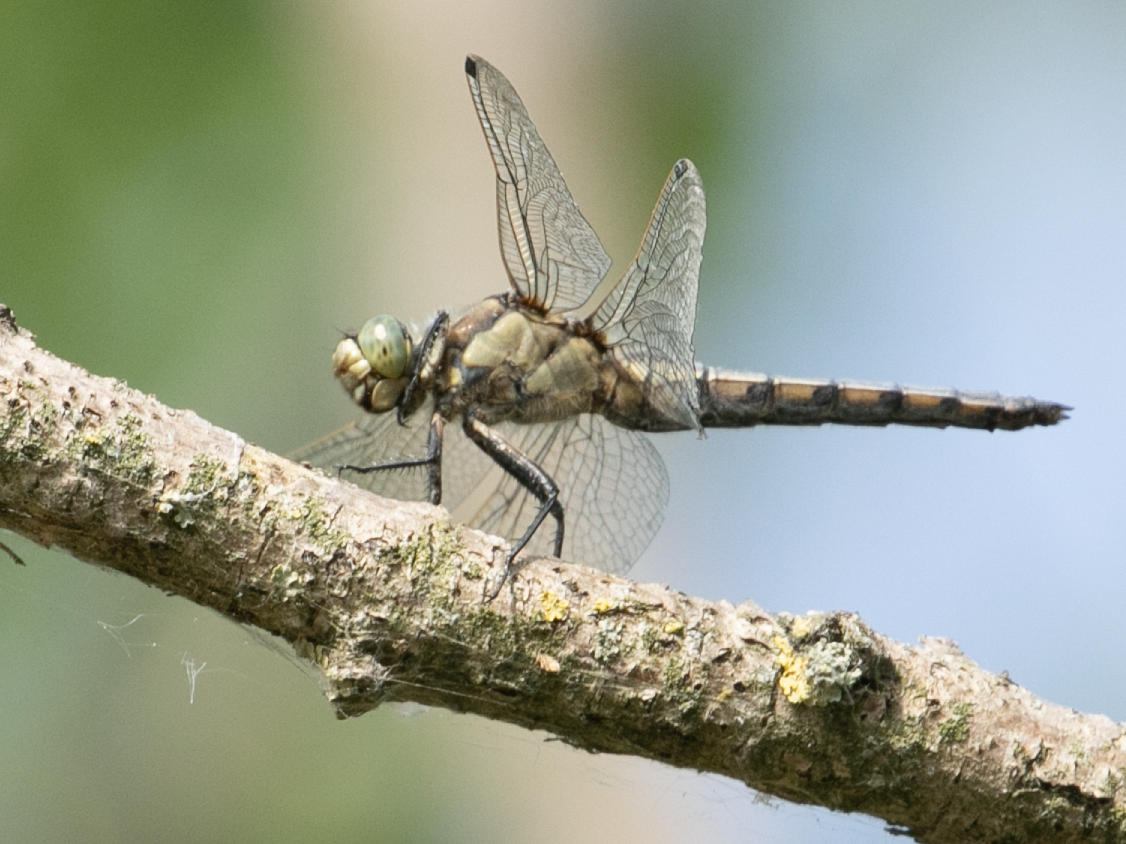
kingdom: Animalia
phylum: Arthropoda
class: Insecta
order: Odonata
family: Libellulidae
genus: Orthetrum
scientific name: Orthetrum cancellatum
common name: Black-tailed skimmer
